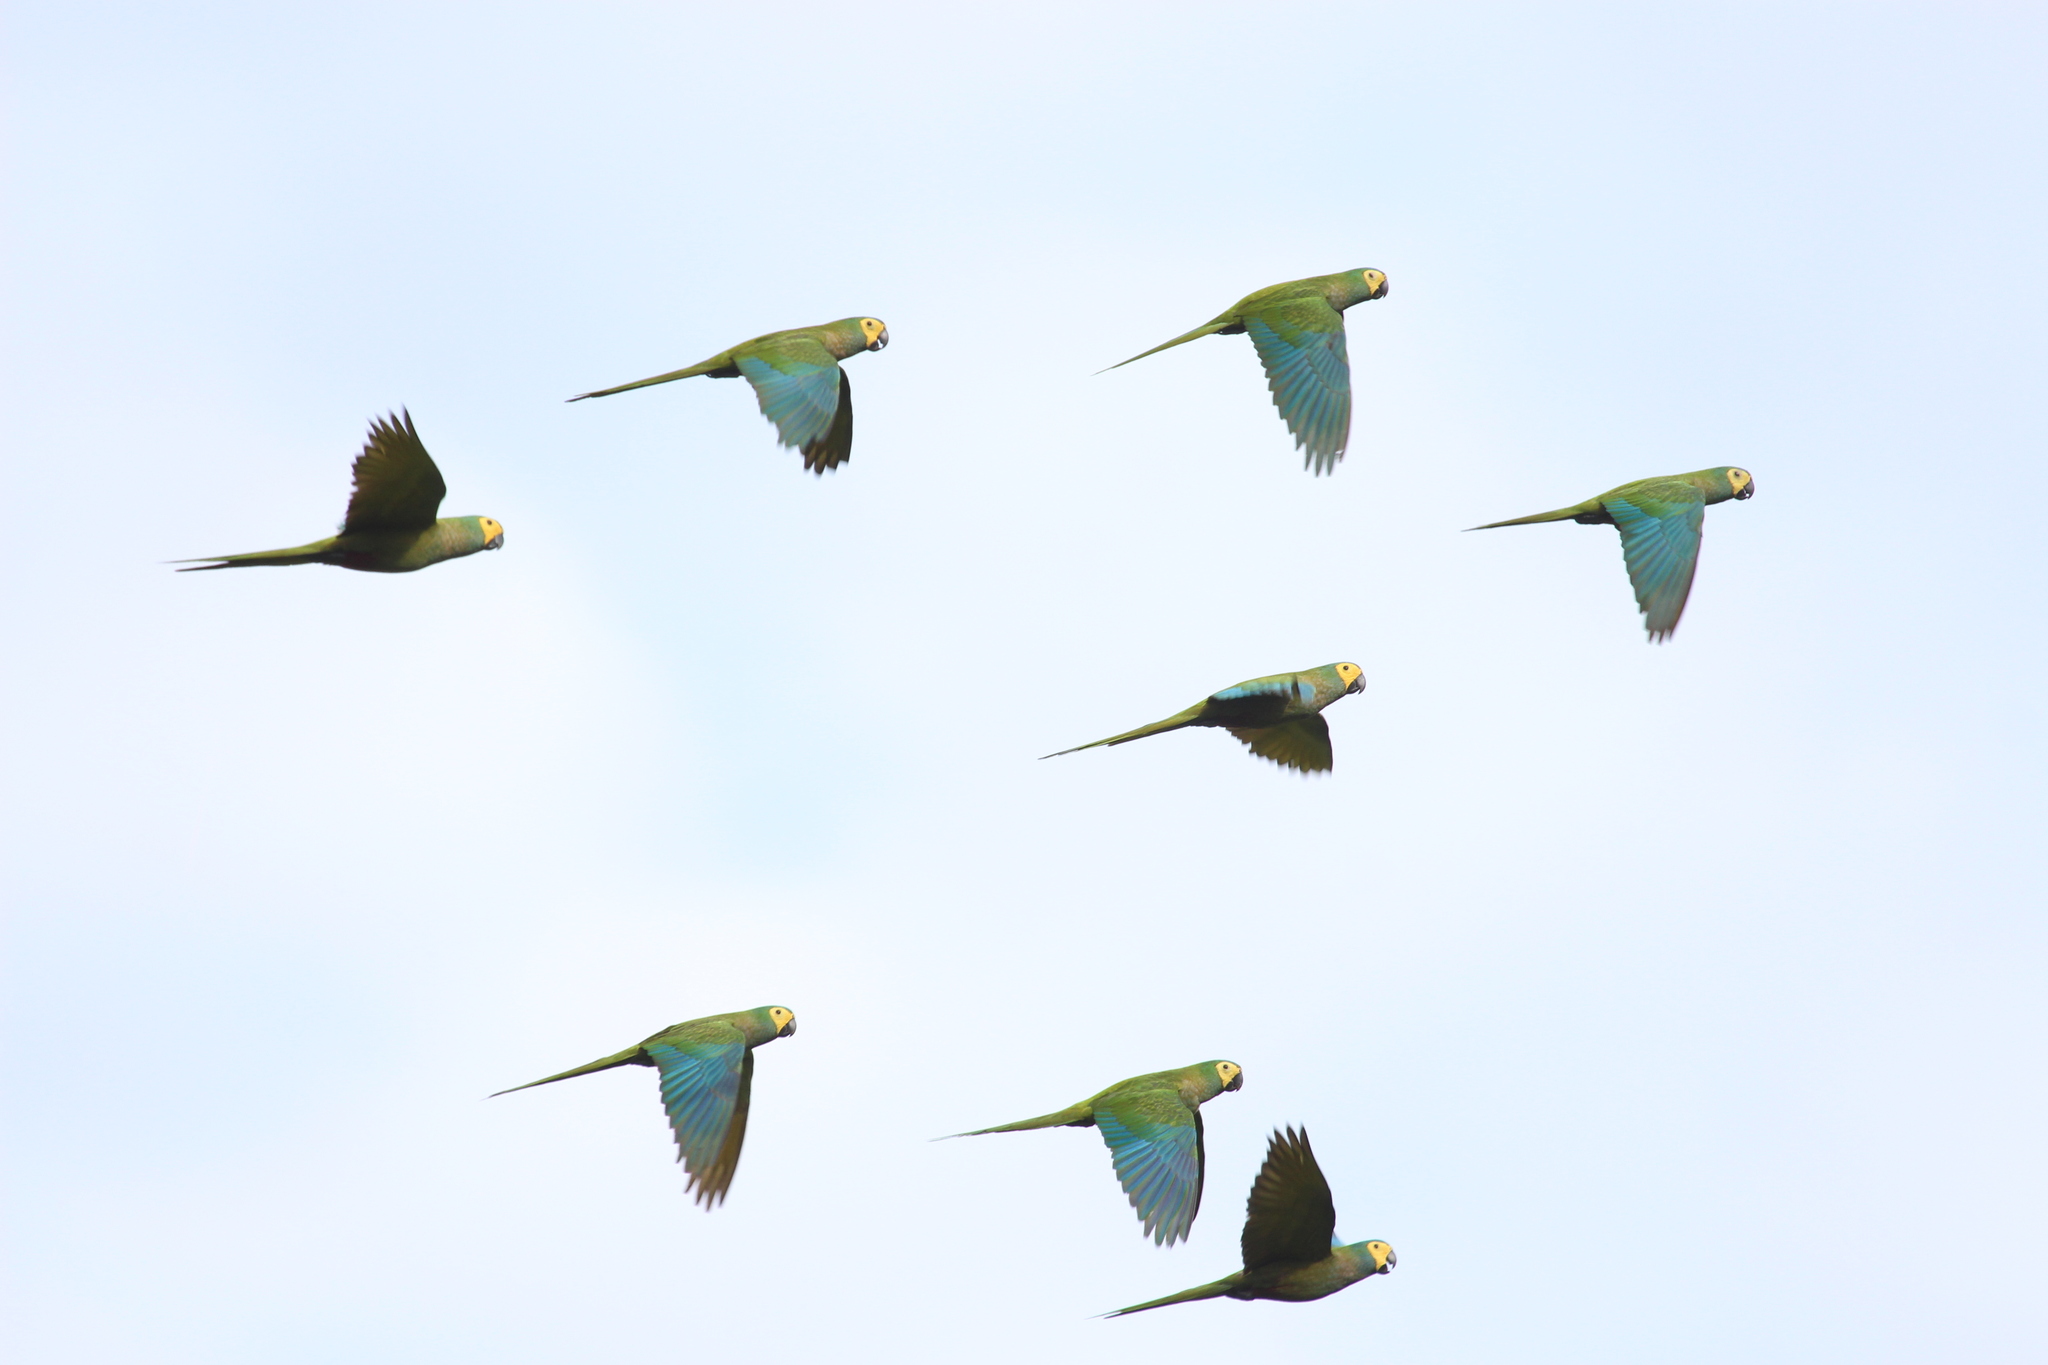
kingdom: Animalia
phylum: Chordata
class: Aves
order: Psittaciformes
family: Psittacidae
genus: Orthopsittaca
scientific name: Orthopsittaca manilata
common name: Red-bellied macaw
